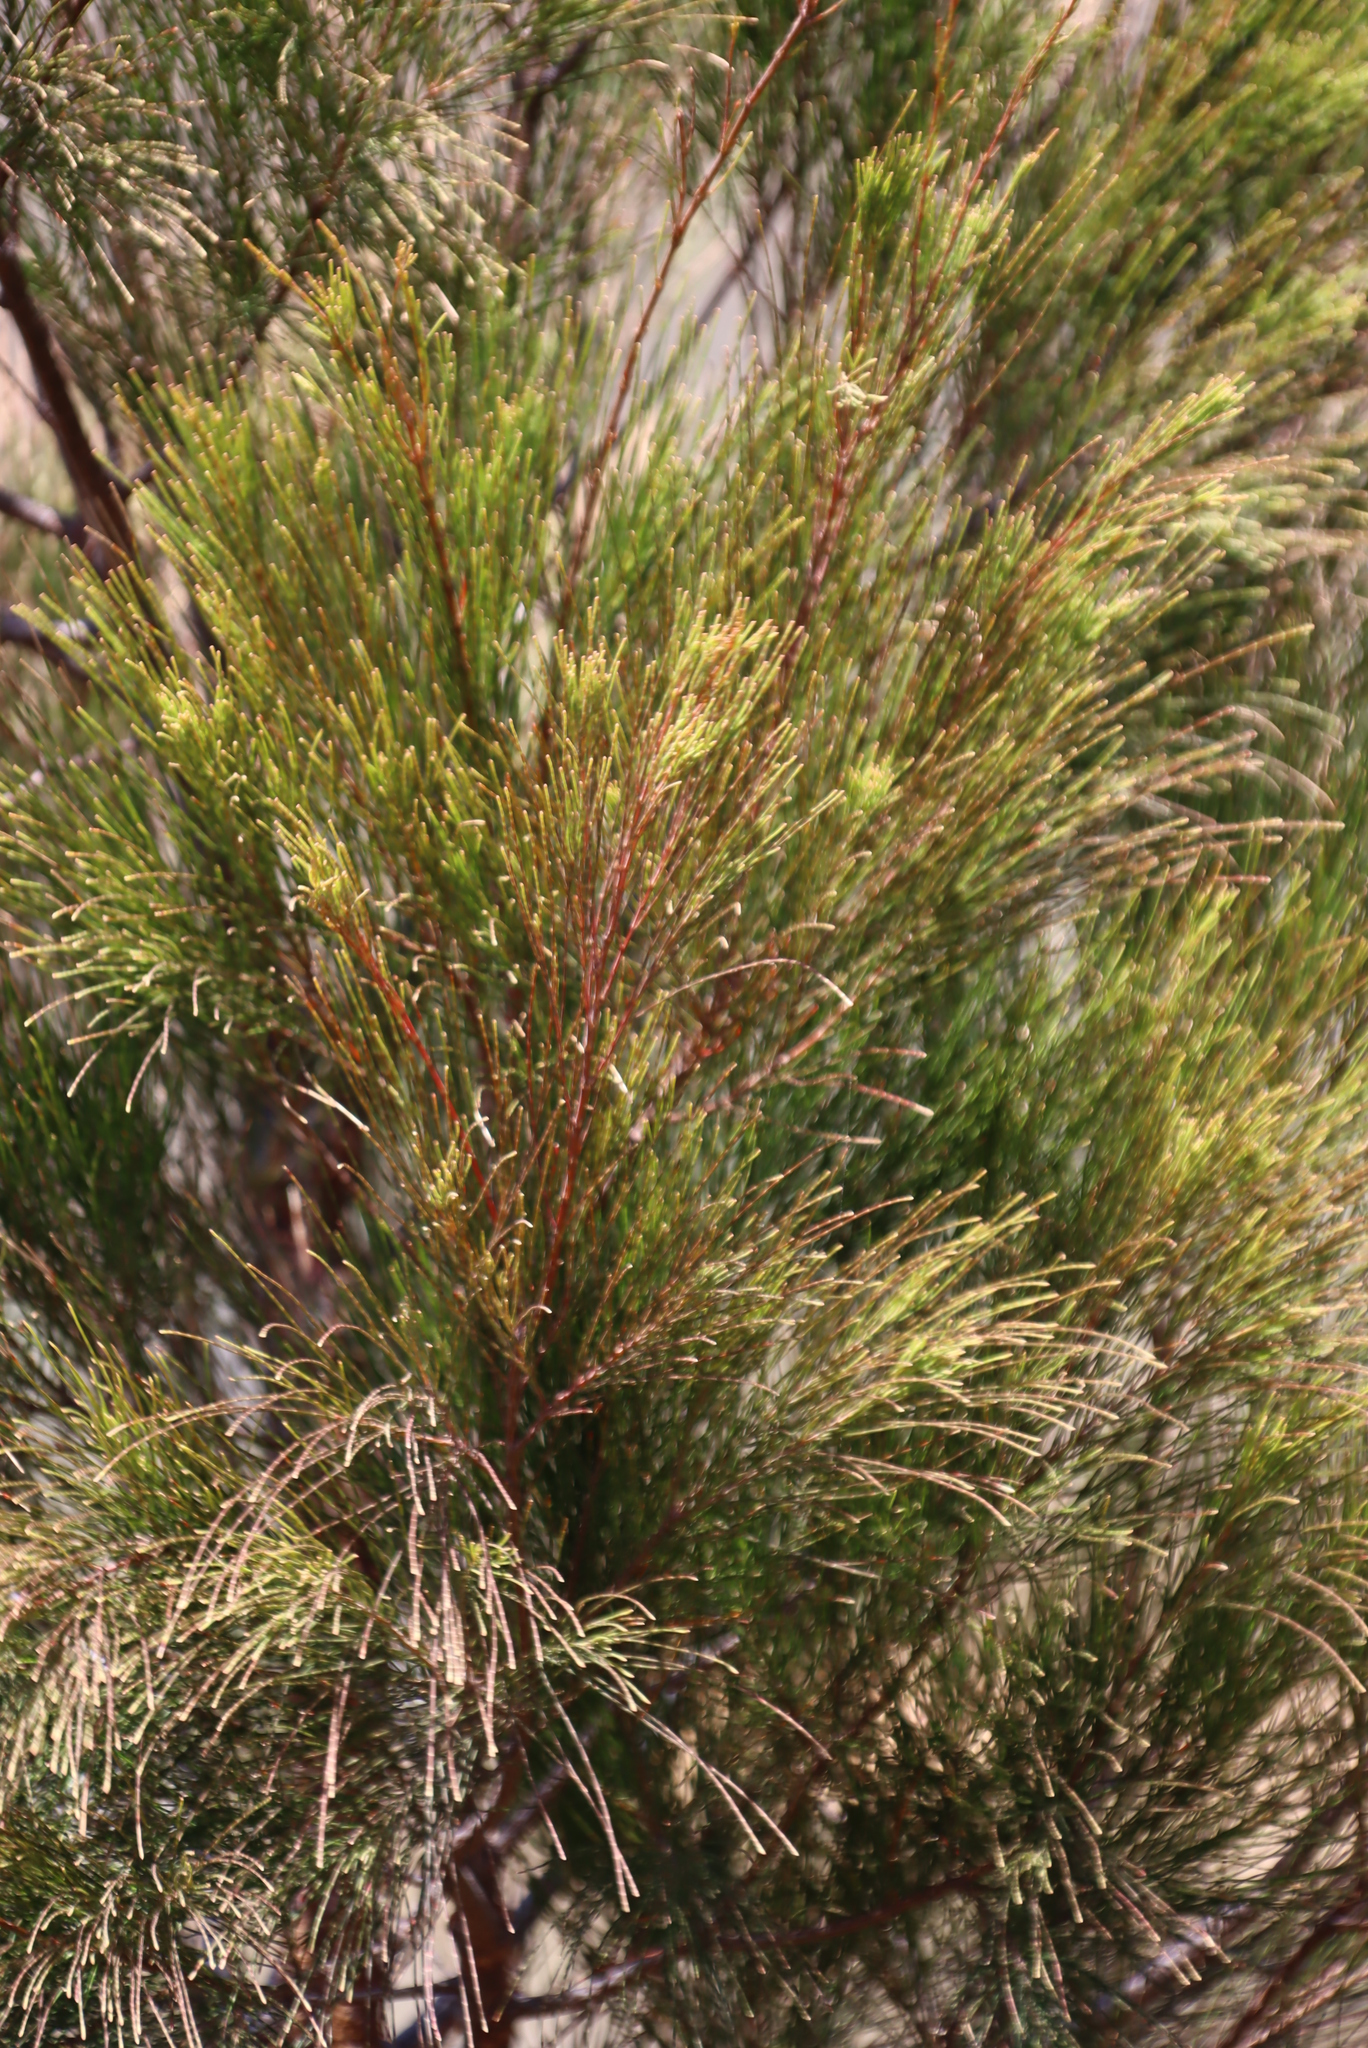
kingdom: Plantae
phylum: Tracheophyta
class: Magnoliopsida
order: Fagales
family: Casuarinaceae
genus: Casuarina
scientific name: Casuarina cunninghamiana
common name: River sheoak
